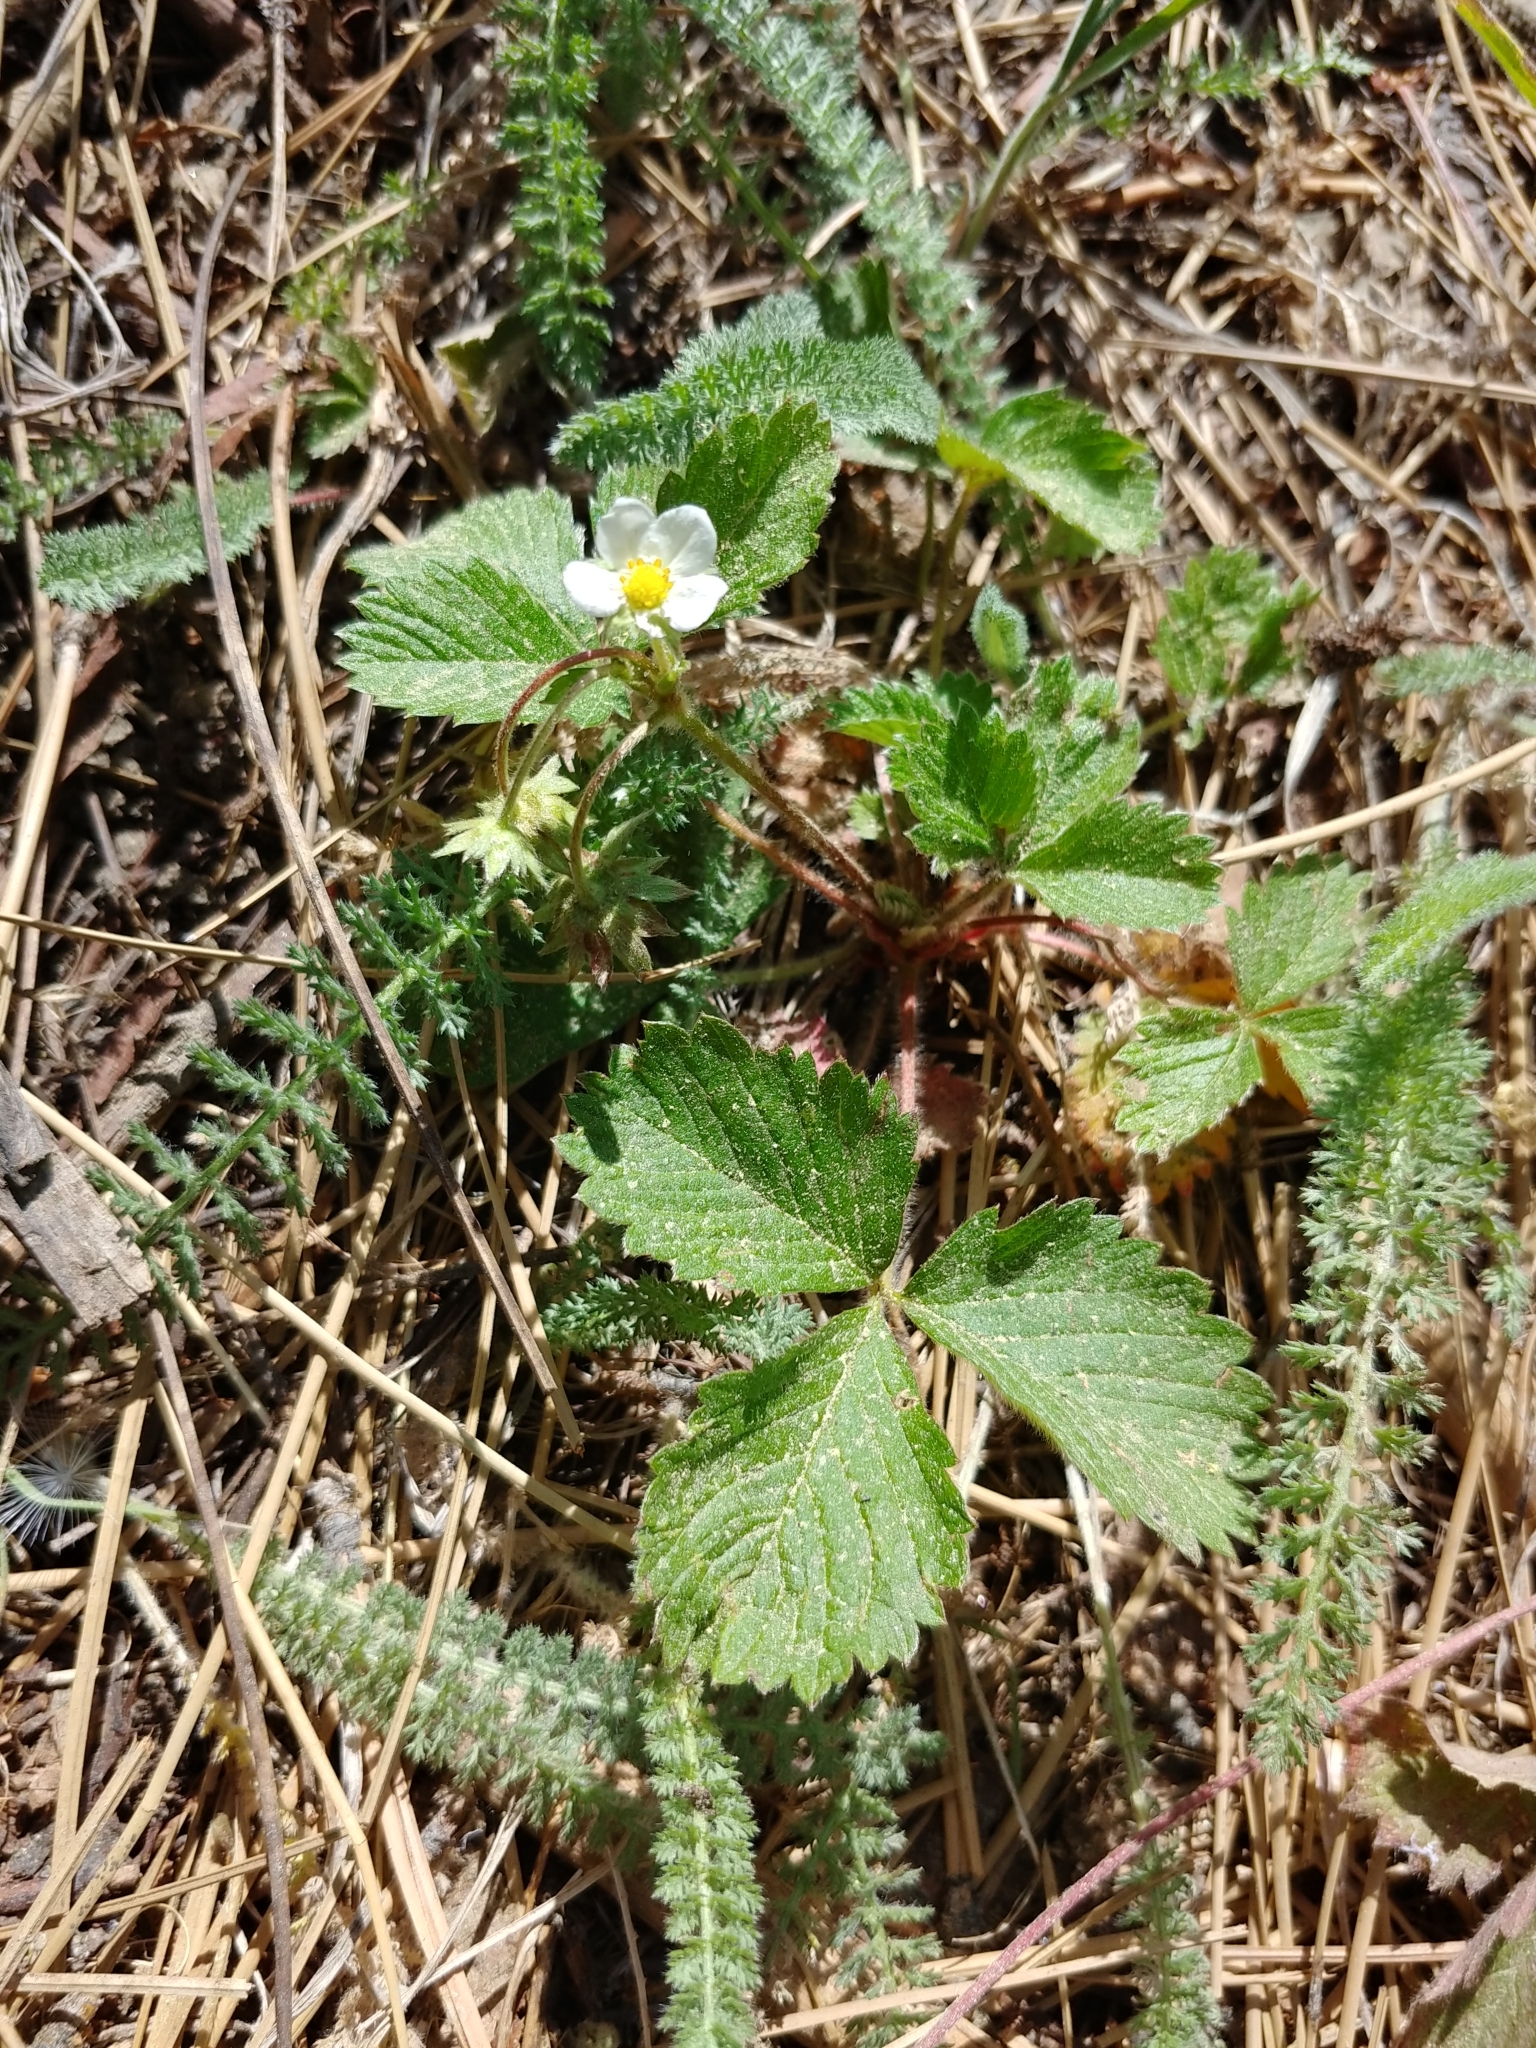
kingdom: Plantae
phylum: Tracheophyta
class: Magnoliopsida
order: Rosales
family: Rosaceae
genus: Fragaria
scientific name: Fragaria vesca
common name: Wild strawberry
